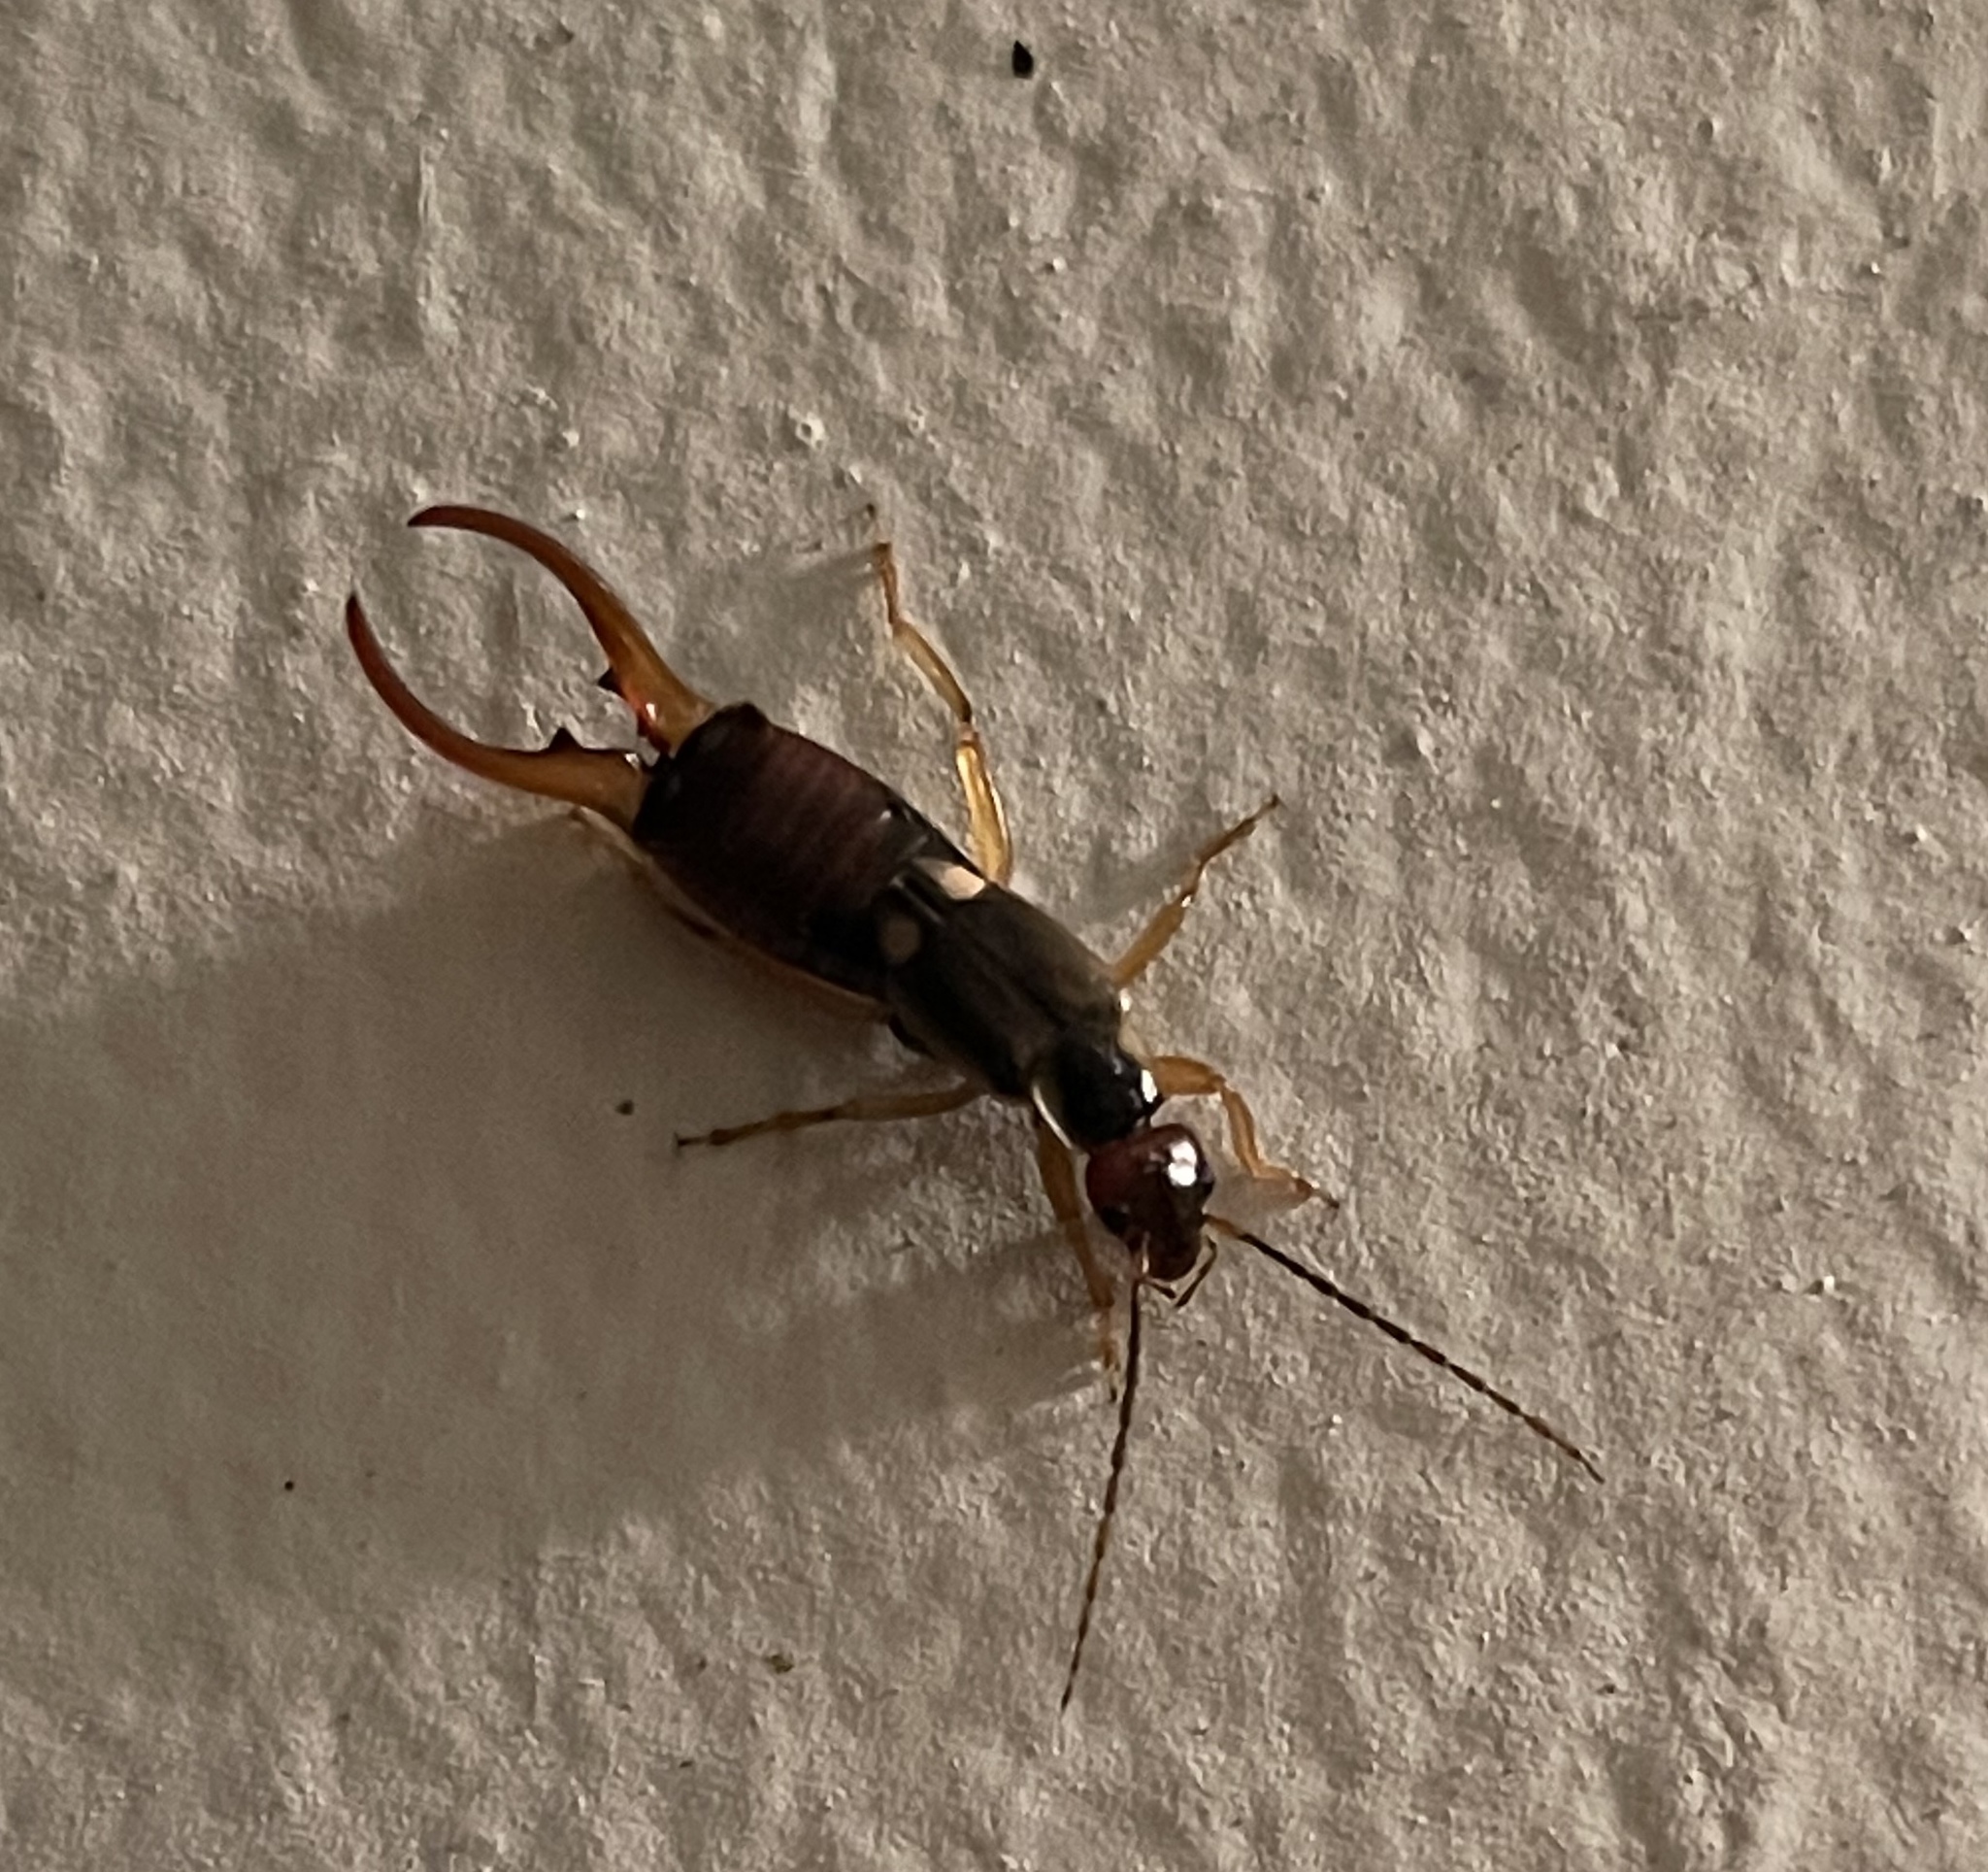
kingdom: Animalia
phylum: Arthropoda
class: Insecta
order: Dermaptera
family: Forficulidae
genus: Forficula
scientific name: Forficula
